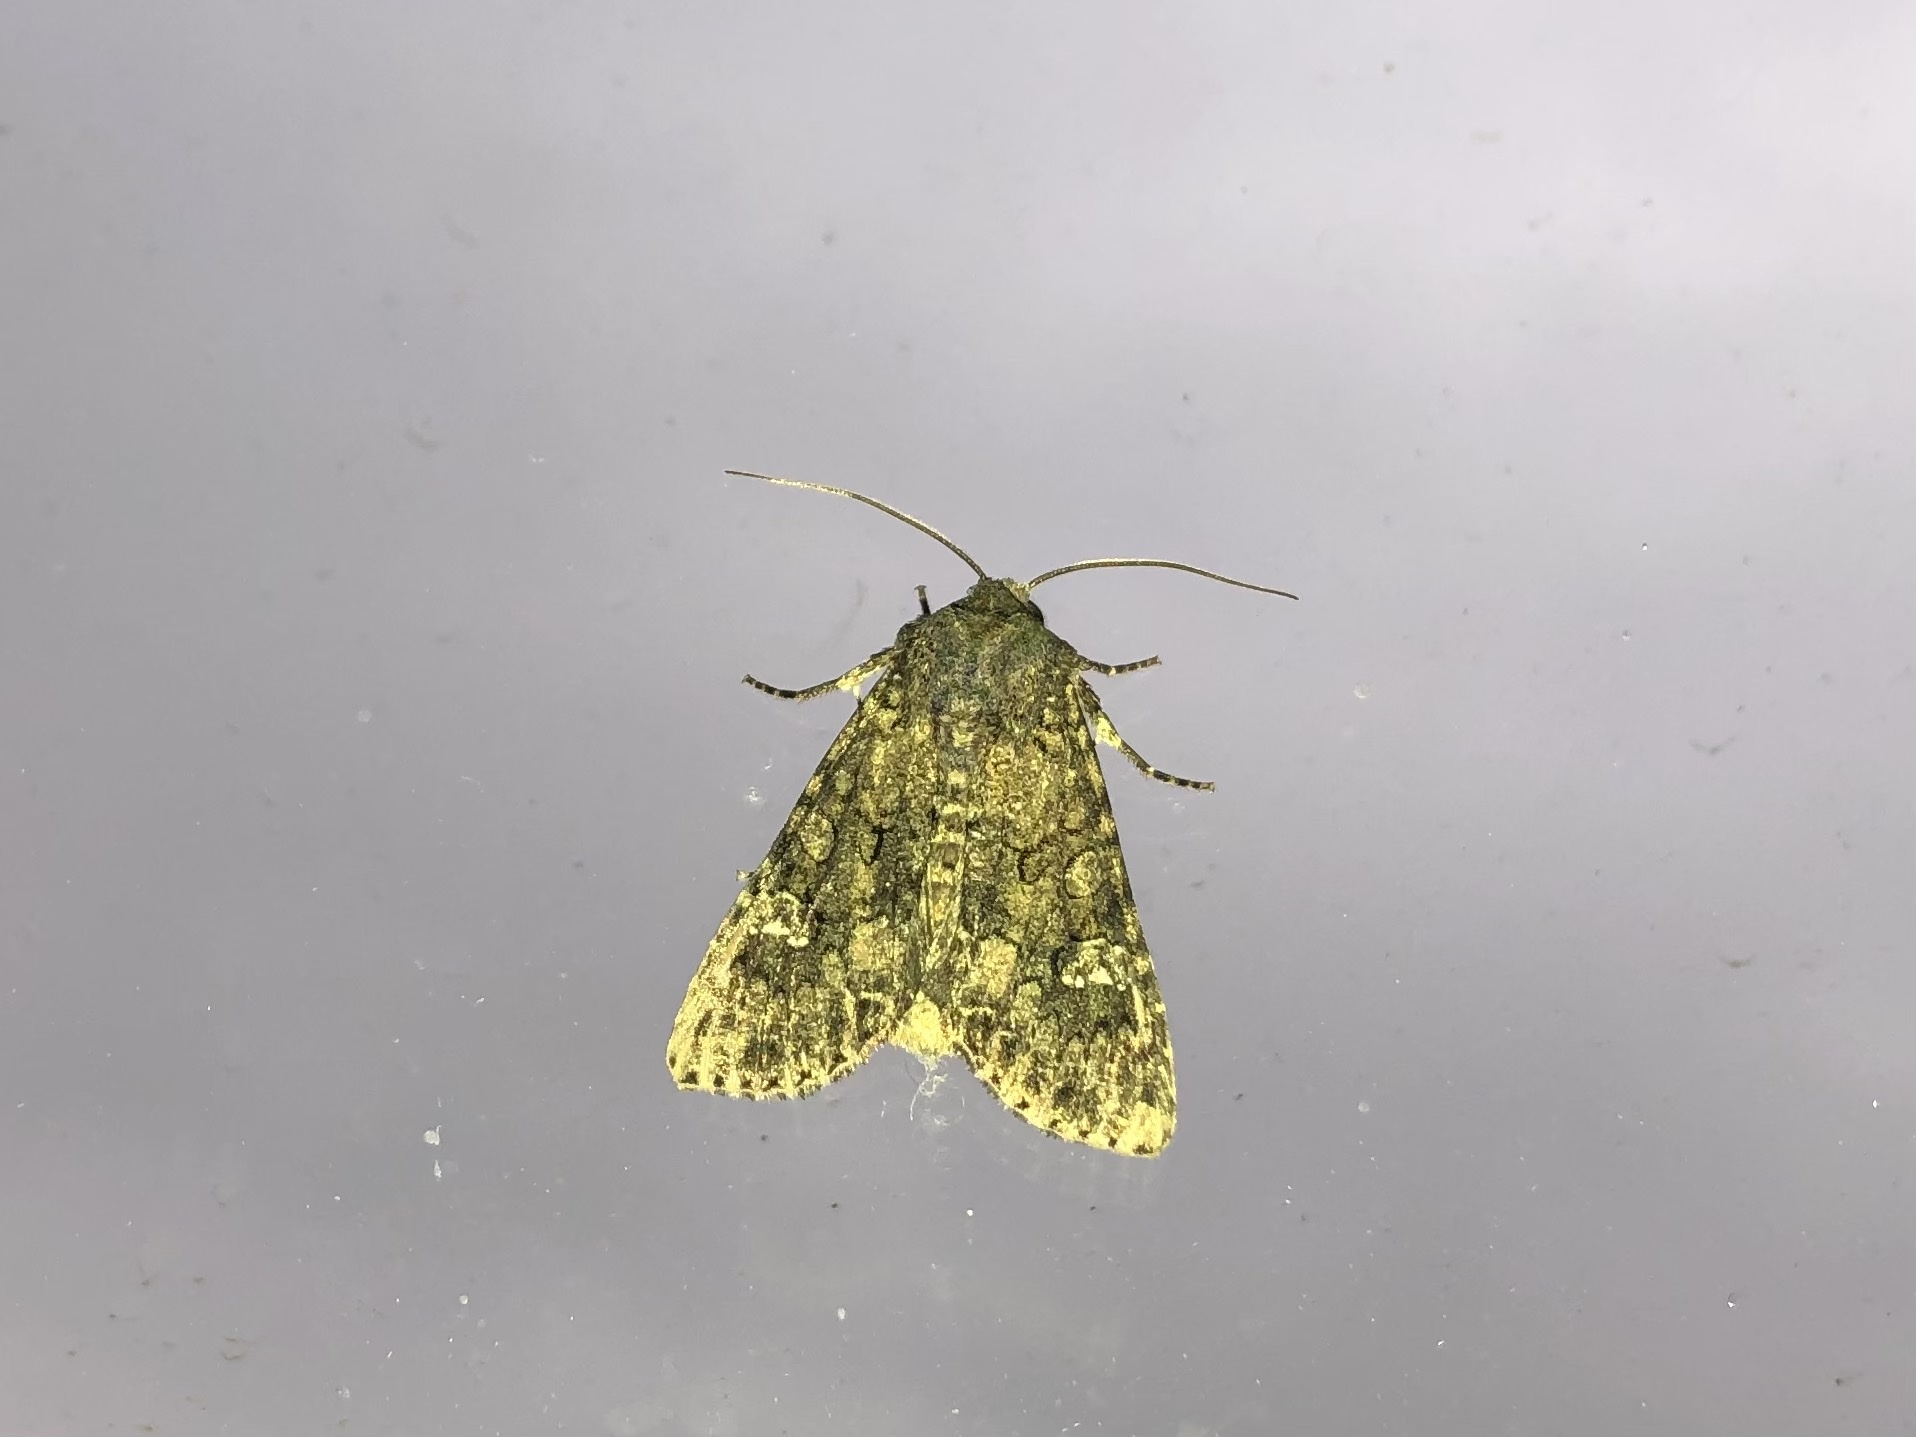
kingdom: Animalia
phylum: Arthropoda
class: Insecta
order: Lepidoptera
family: Noctuidae
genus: Mamestra
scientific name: Mamestra brassicae
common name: Cabbage moth
